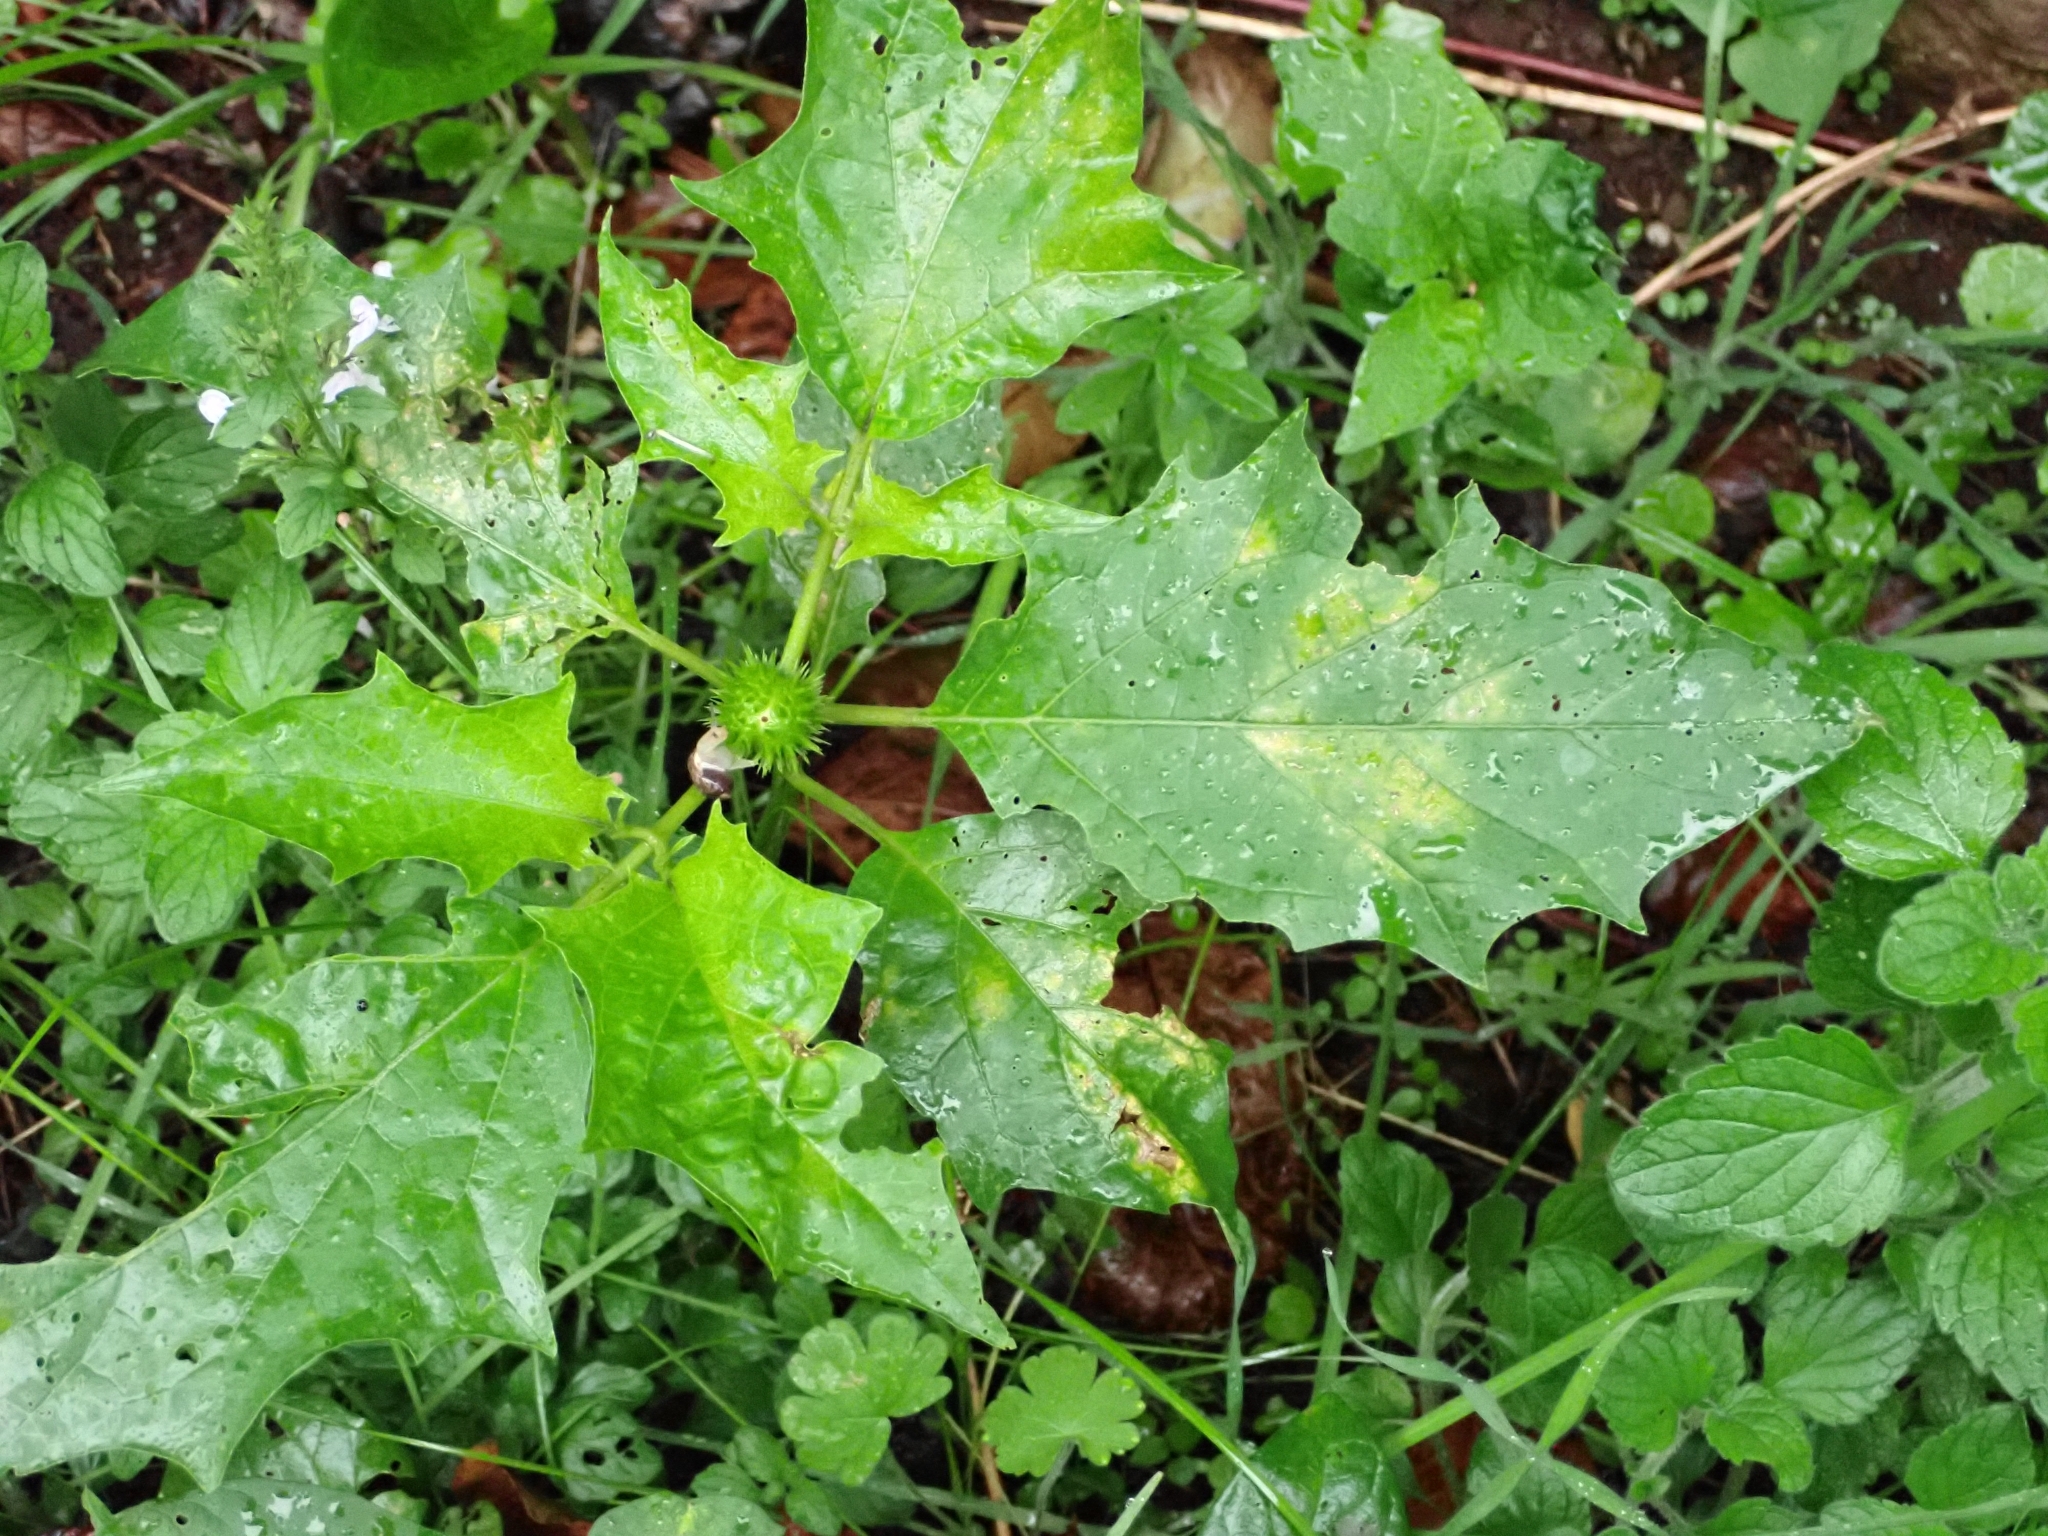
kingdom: Plantae
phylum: Tracheophyta
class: Magnoliopsida
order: Solanales
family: Solanaceae
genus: Datura
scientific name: Datura stramonium
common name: Thorn-apple
